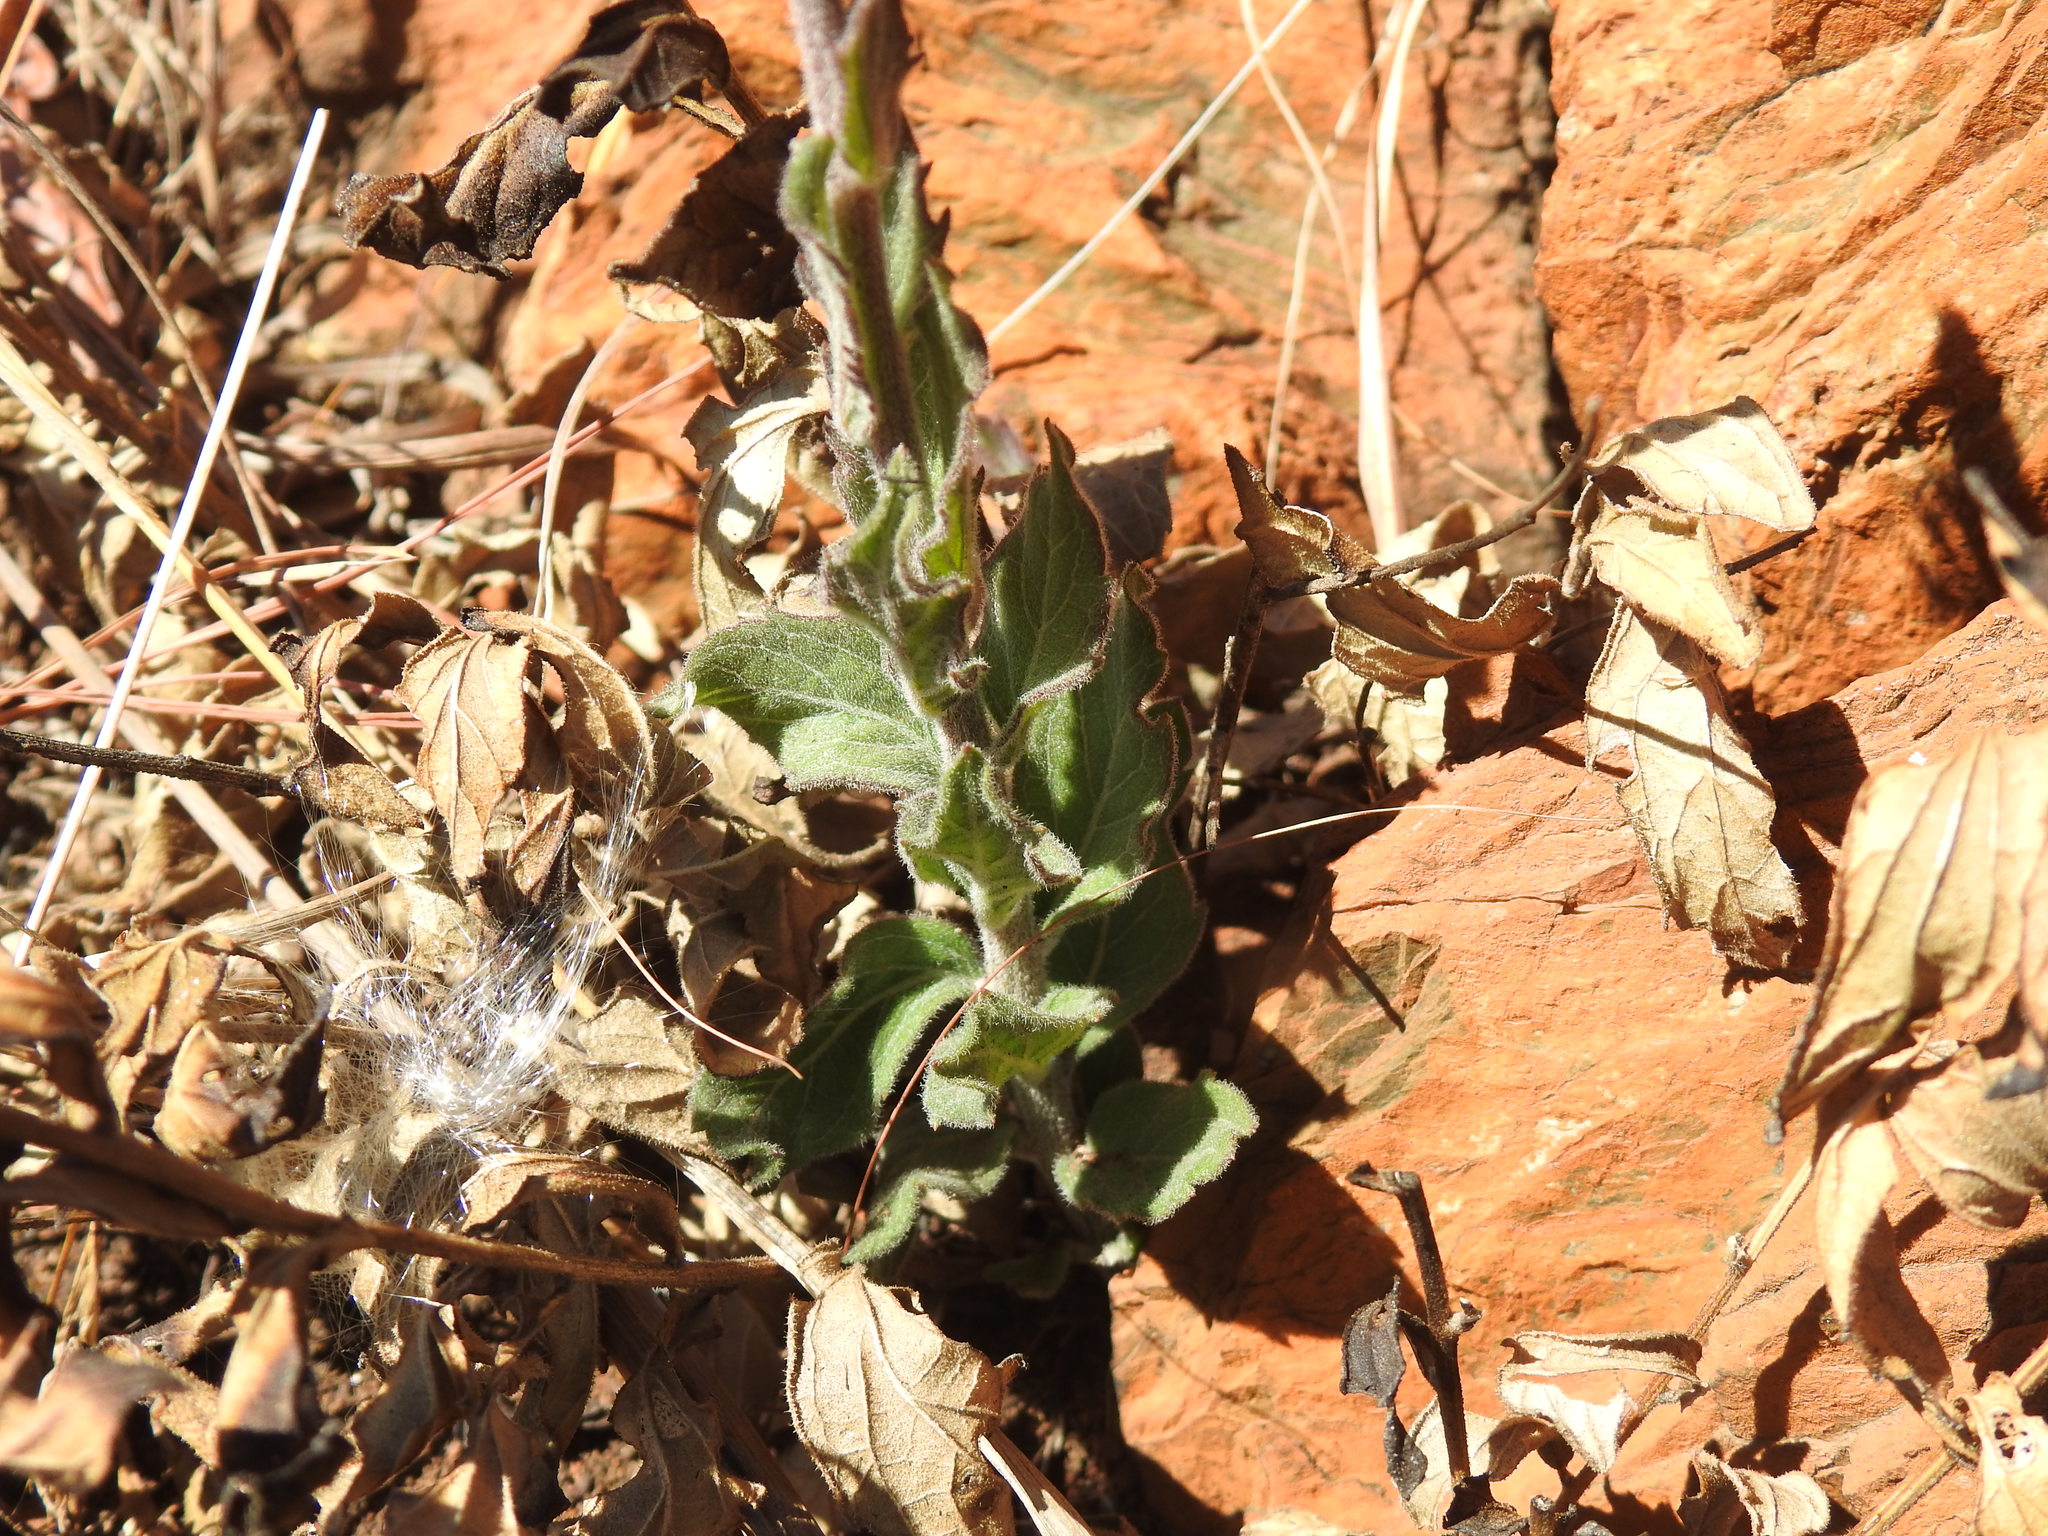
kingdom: Plantae
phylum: Tracheophyta
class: Magnoliopsida
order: Asterales
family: Asteraceae
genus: Hilliardiella
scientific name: Hilliardiella sutherlandii
